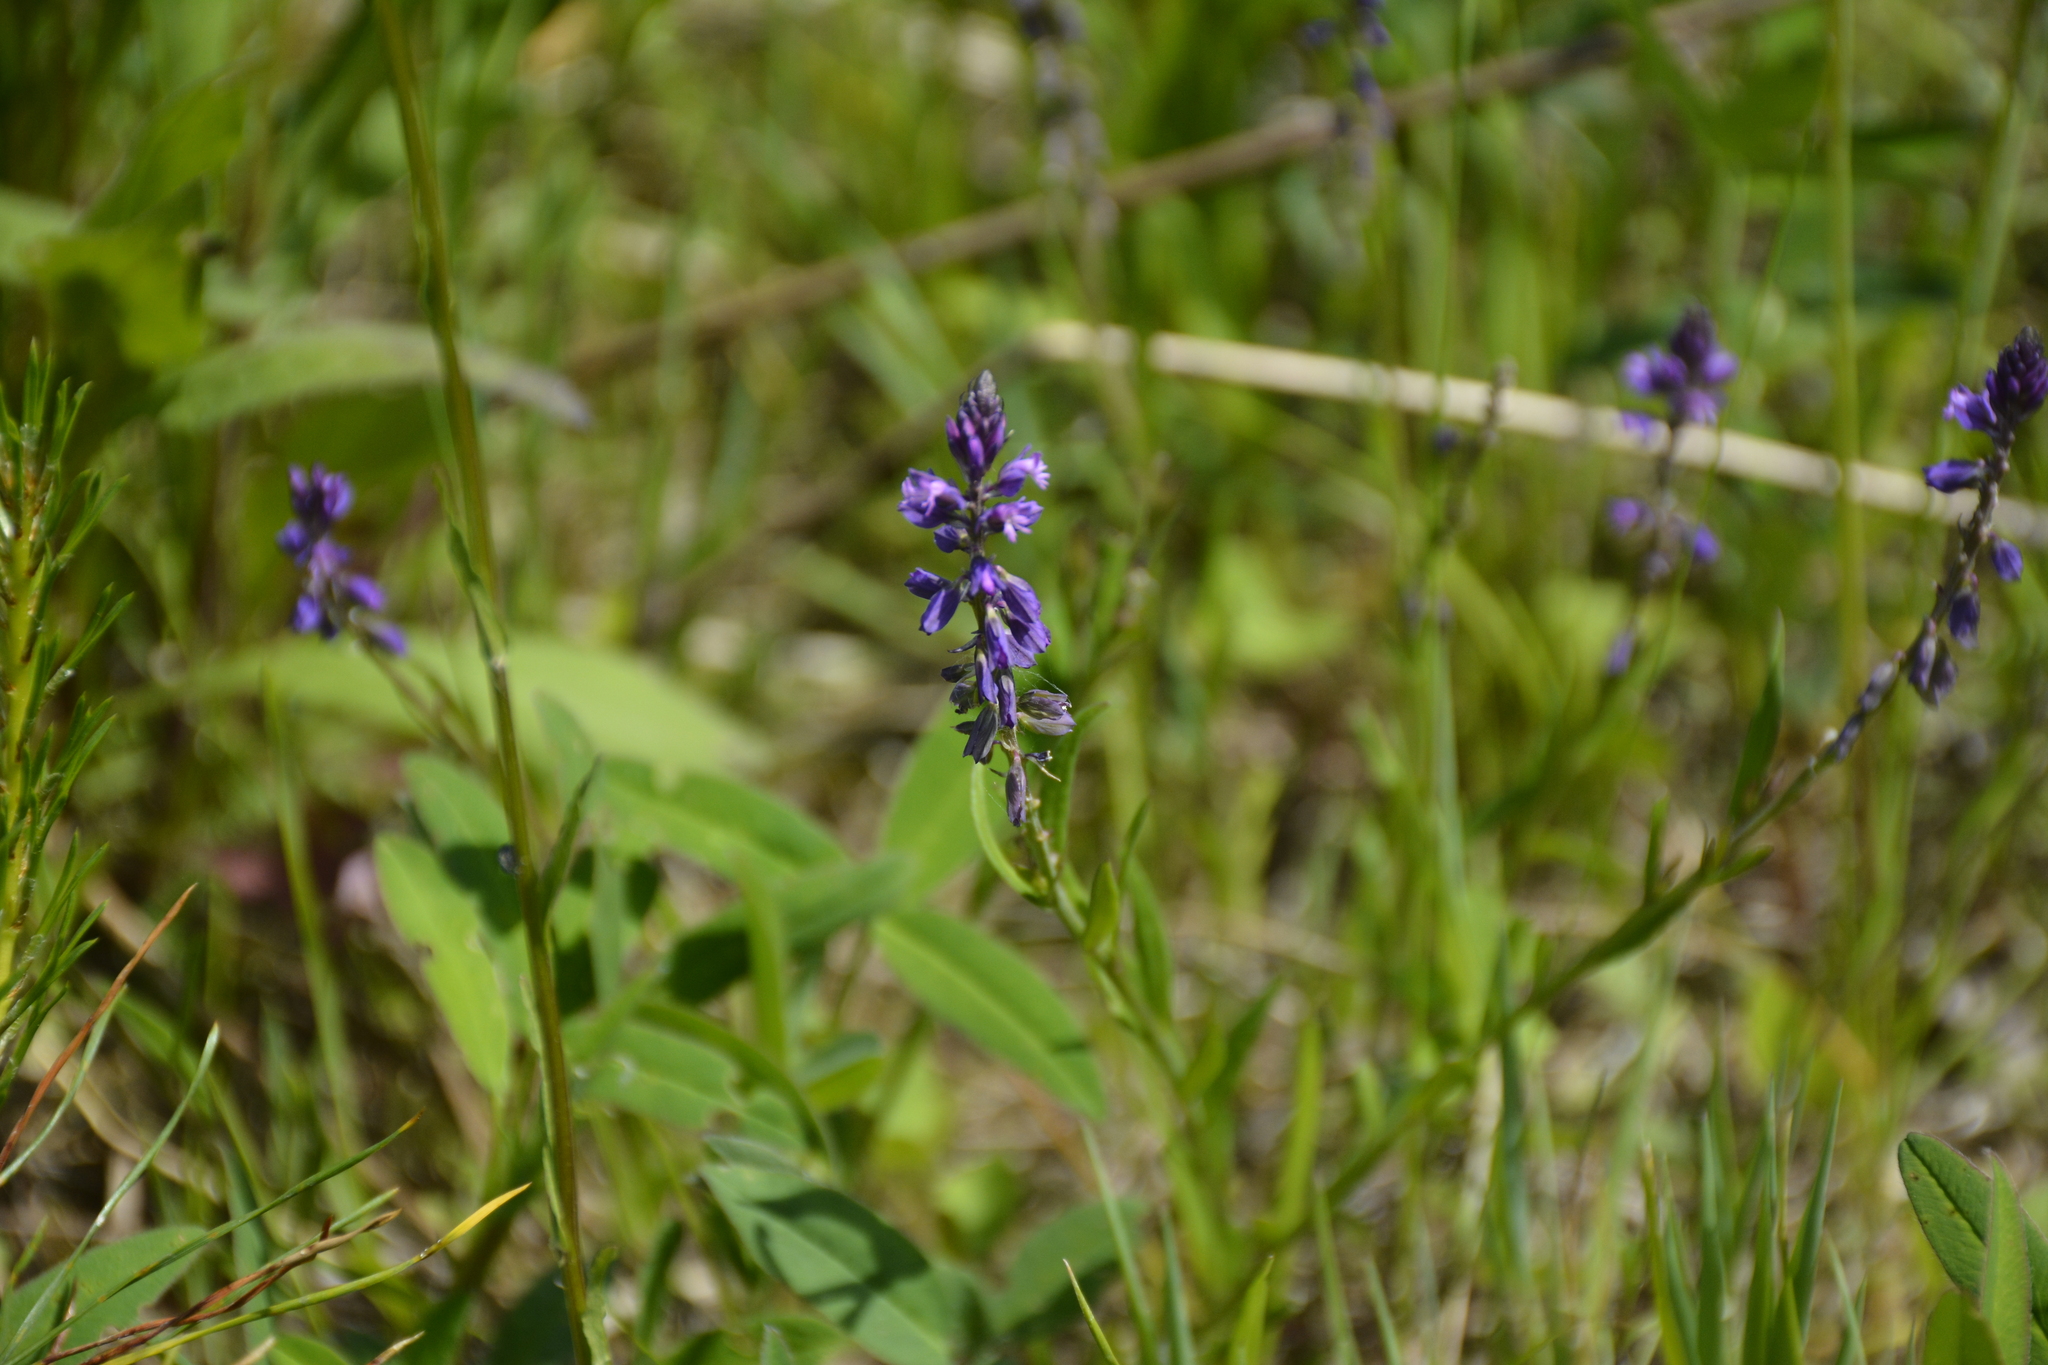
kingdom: Plantae
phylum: Tracheophyta
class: Magnoliopsida
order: Fabales
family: Polygalaceae
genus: Polygala
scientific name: Polygala comosa
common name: Tufted milkwort
